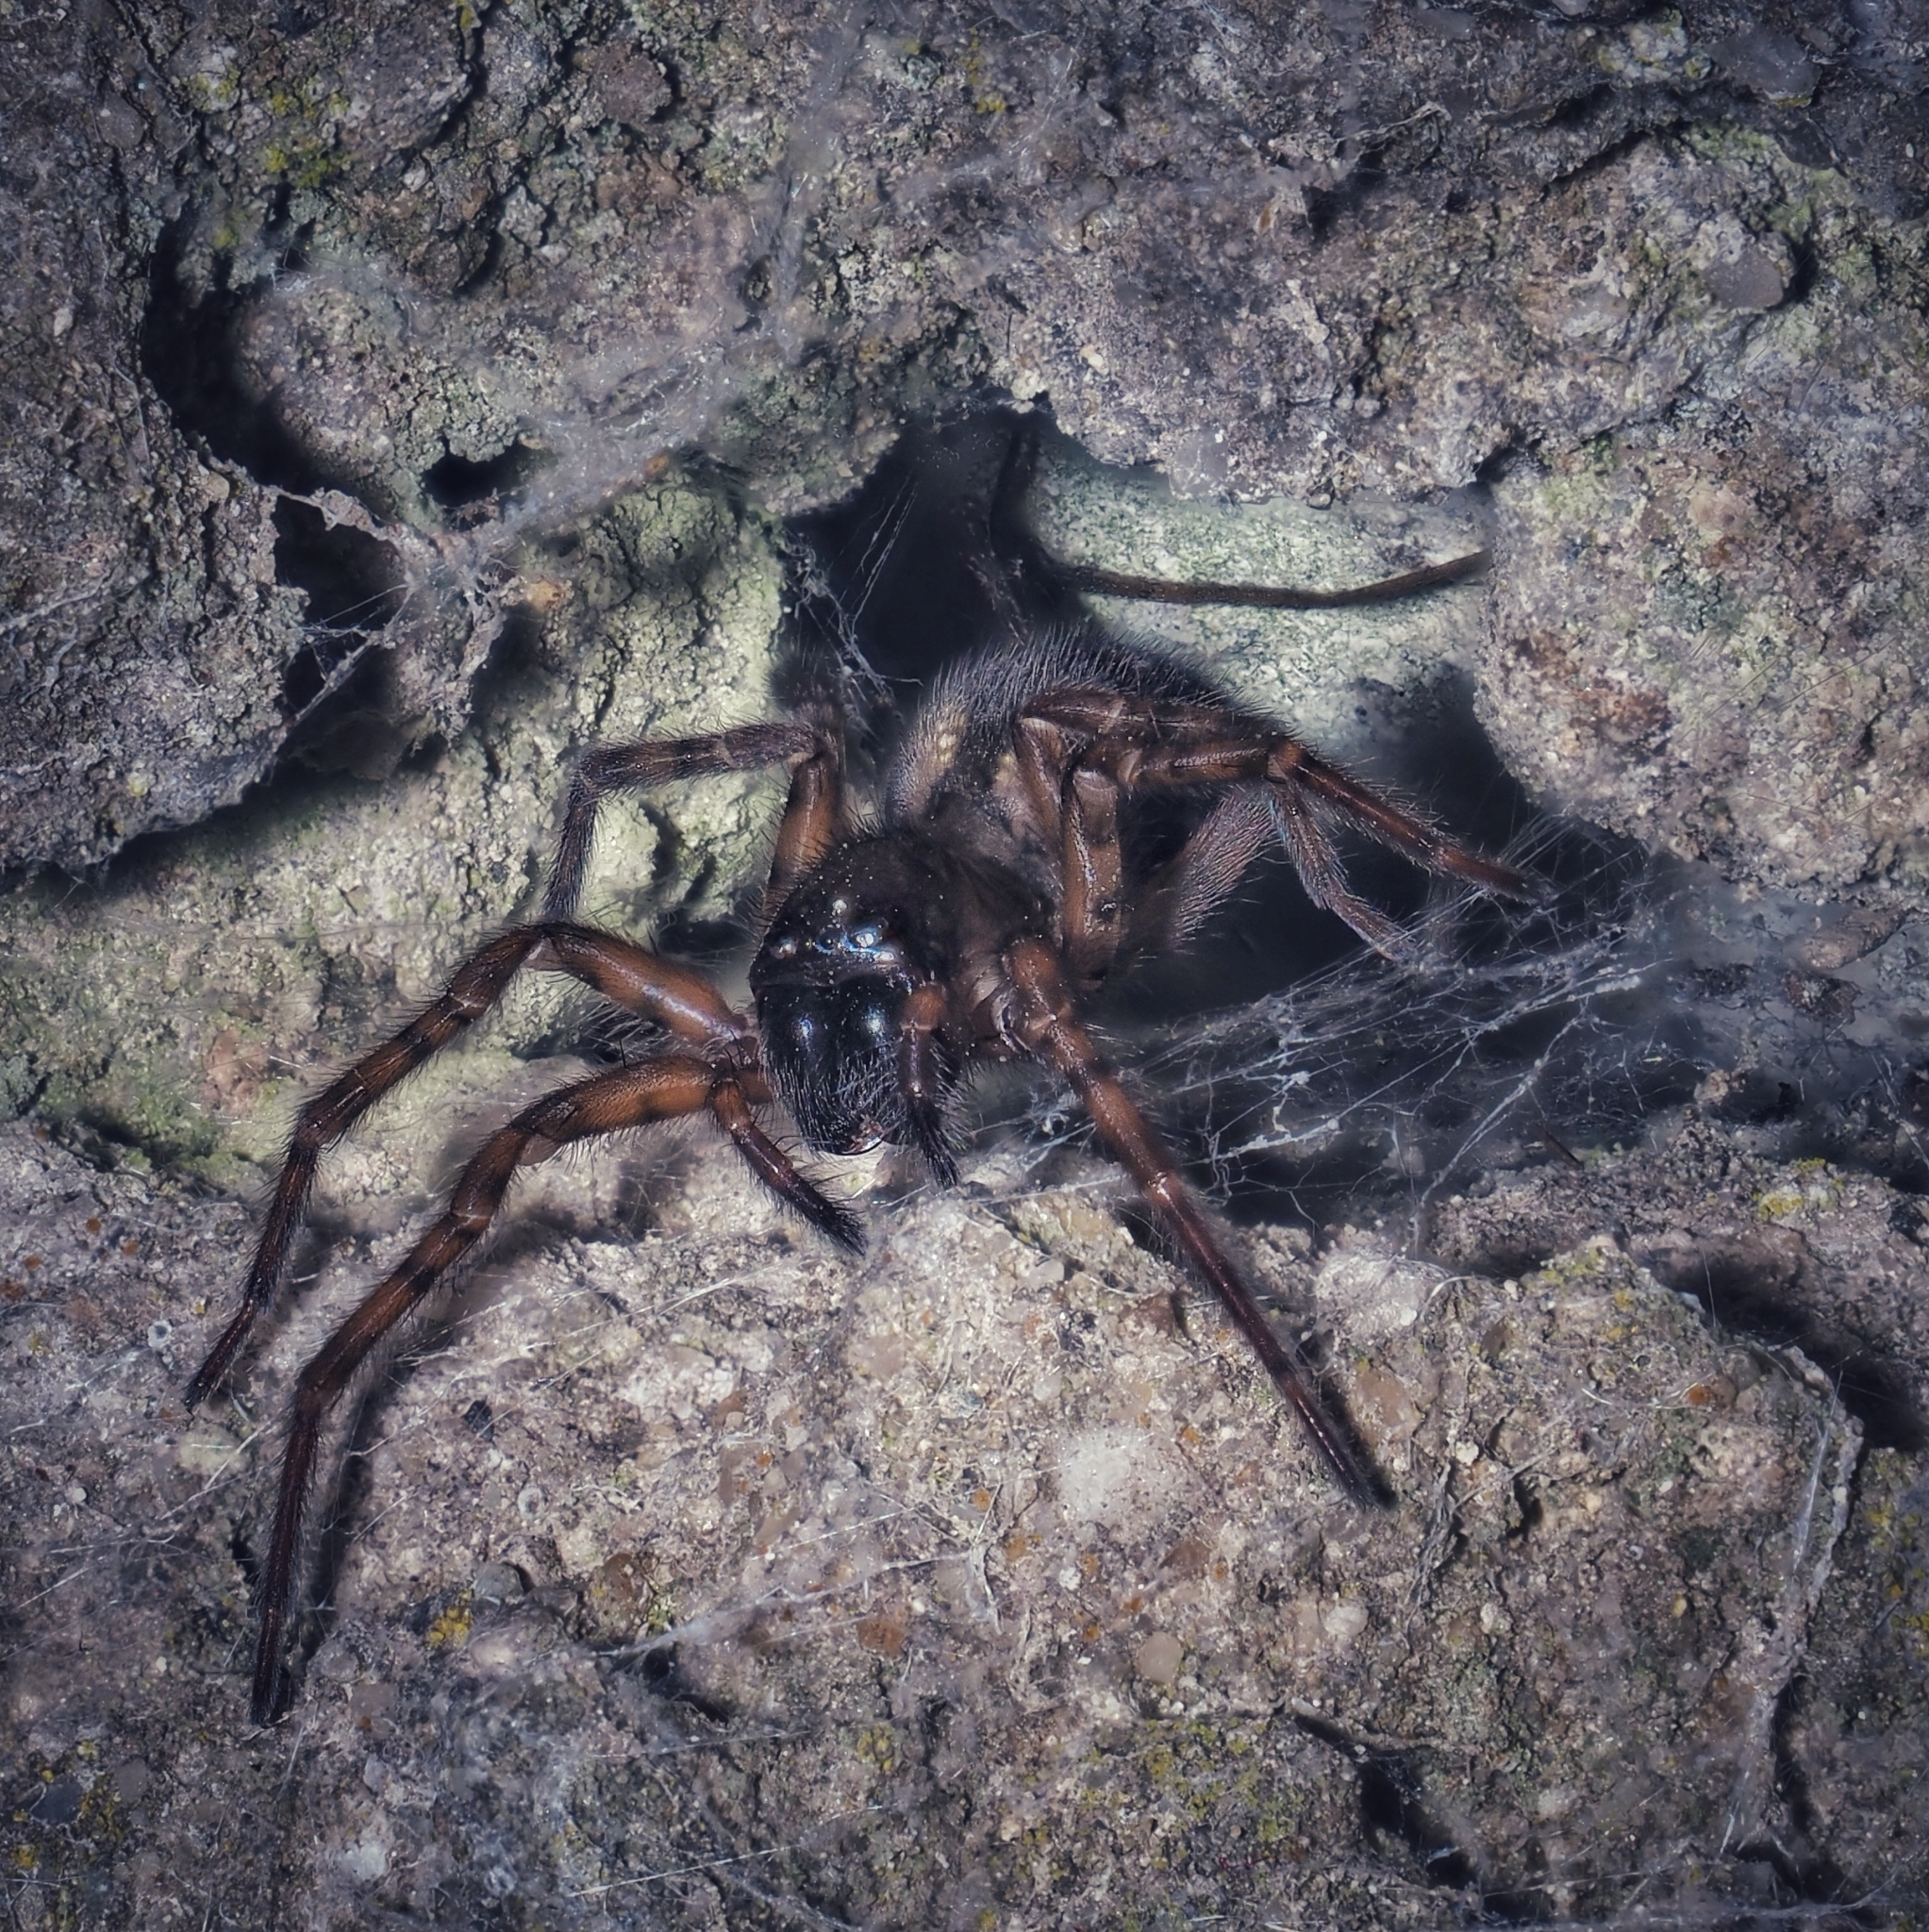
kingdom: Animalia
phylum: Arthropoda
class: Arachnida
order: Araneae
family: Amaurobiidae
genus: Amaurobius
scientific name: Amaurobius fenestralis
